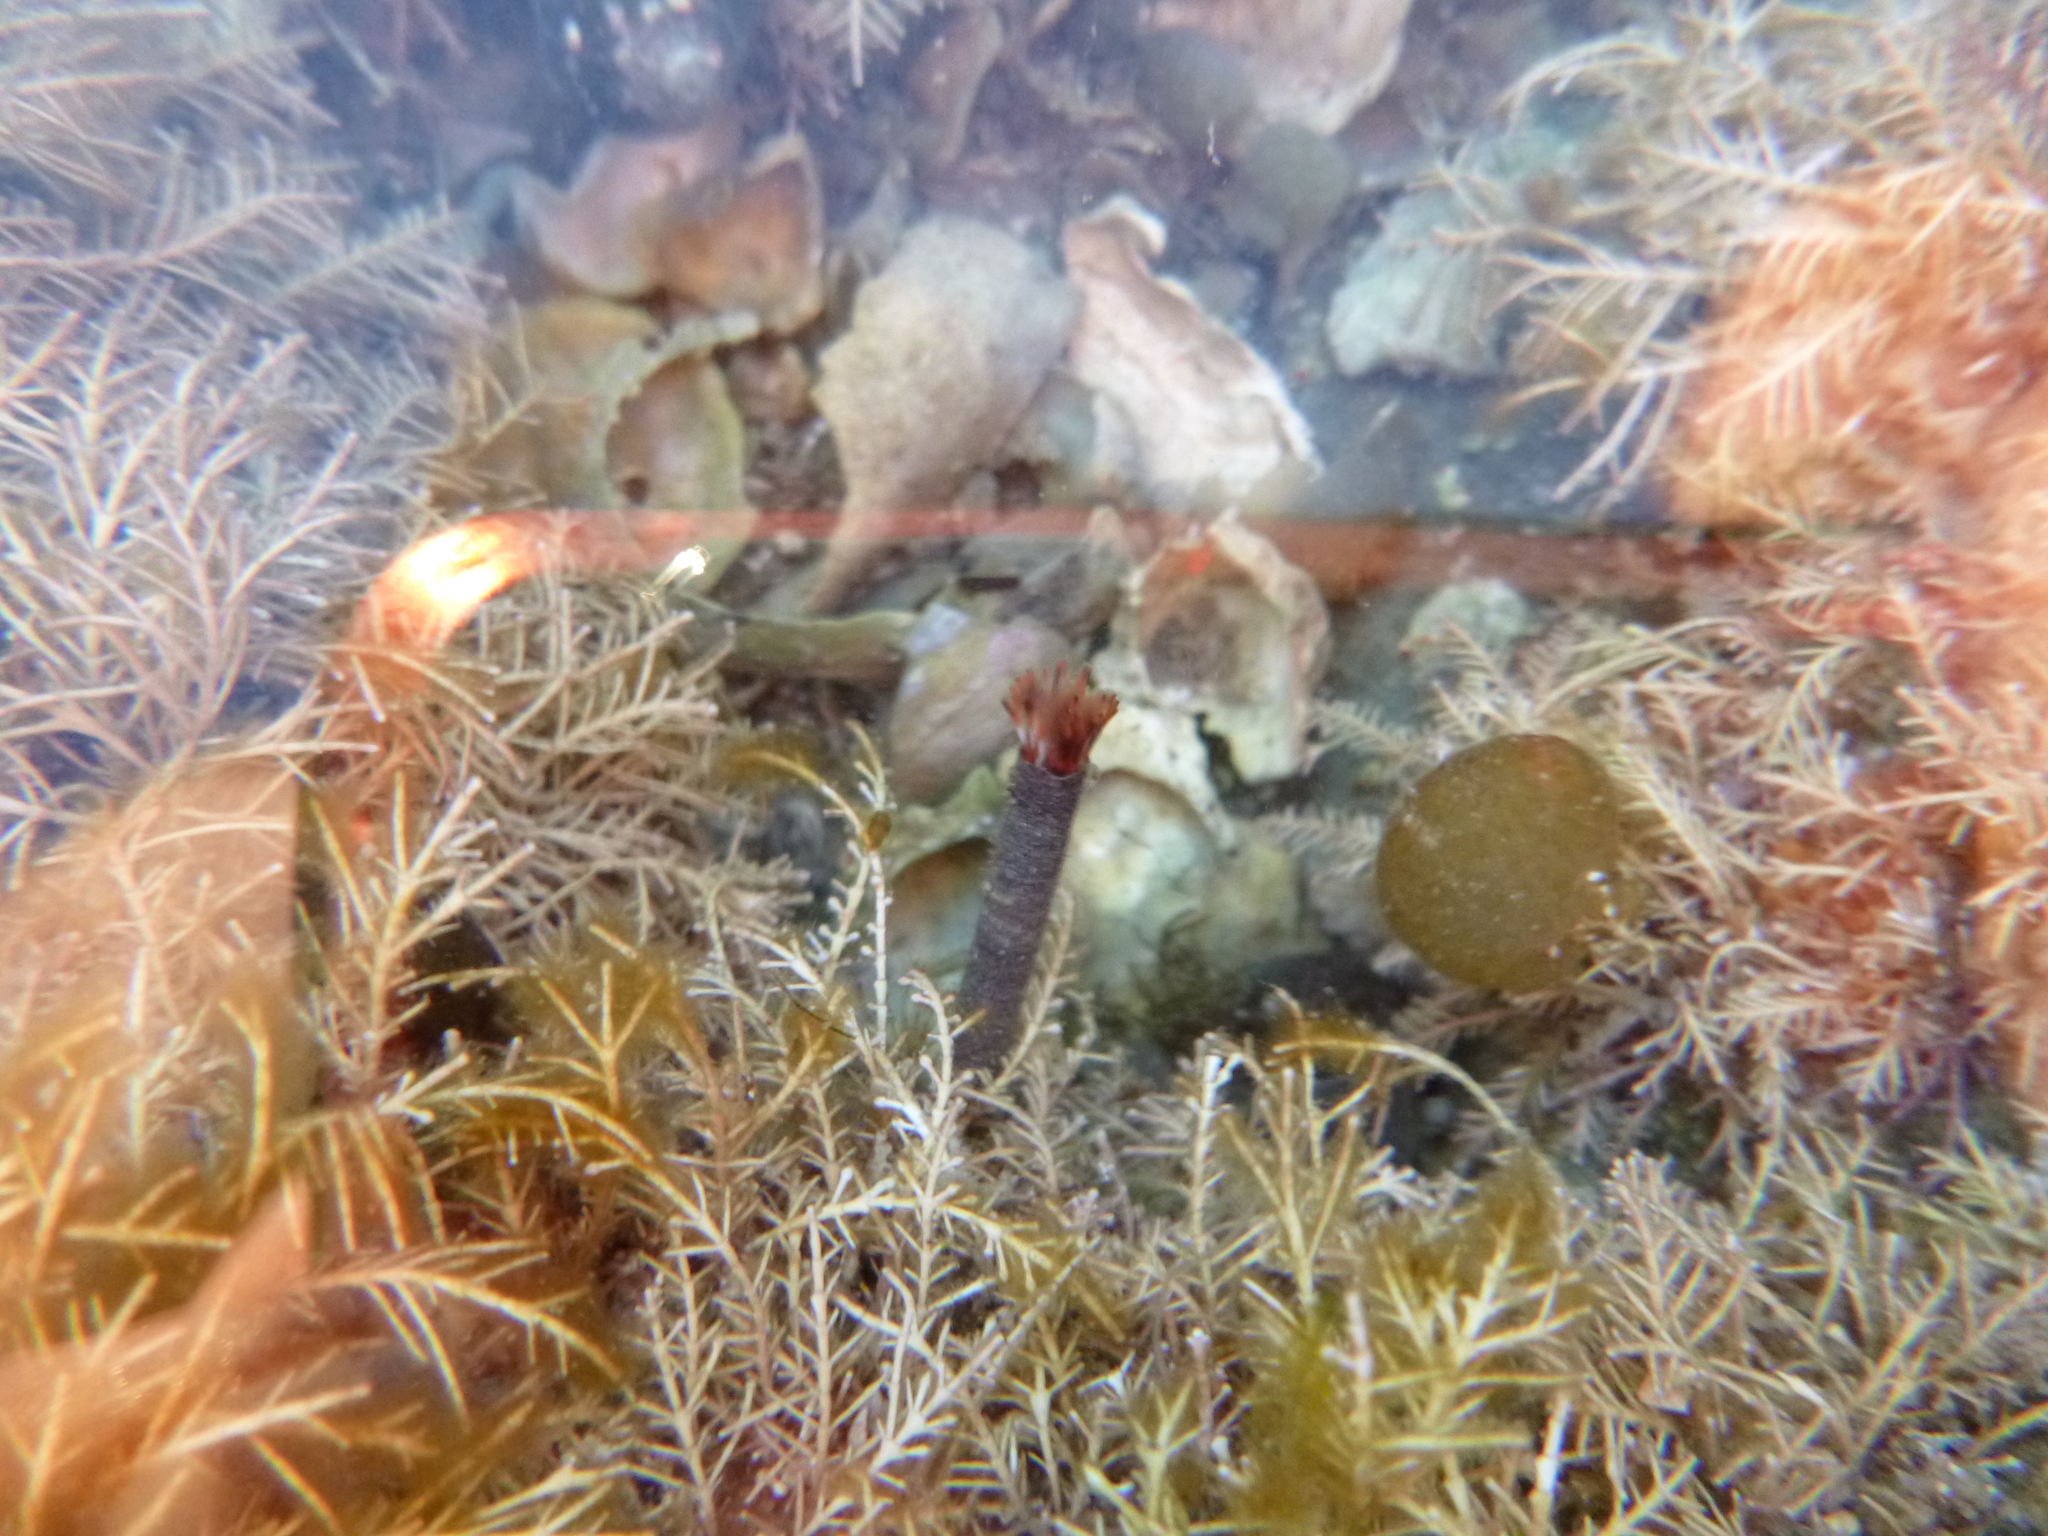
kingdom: Animalia
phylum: Annelida
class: Polychaeta
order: Sabellida
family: Sabellidae
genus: Sabella
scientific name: Sabella spallanzanii
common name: Feather duster worm
